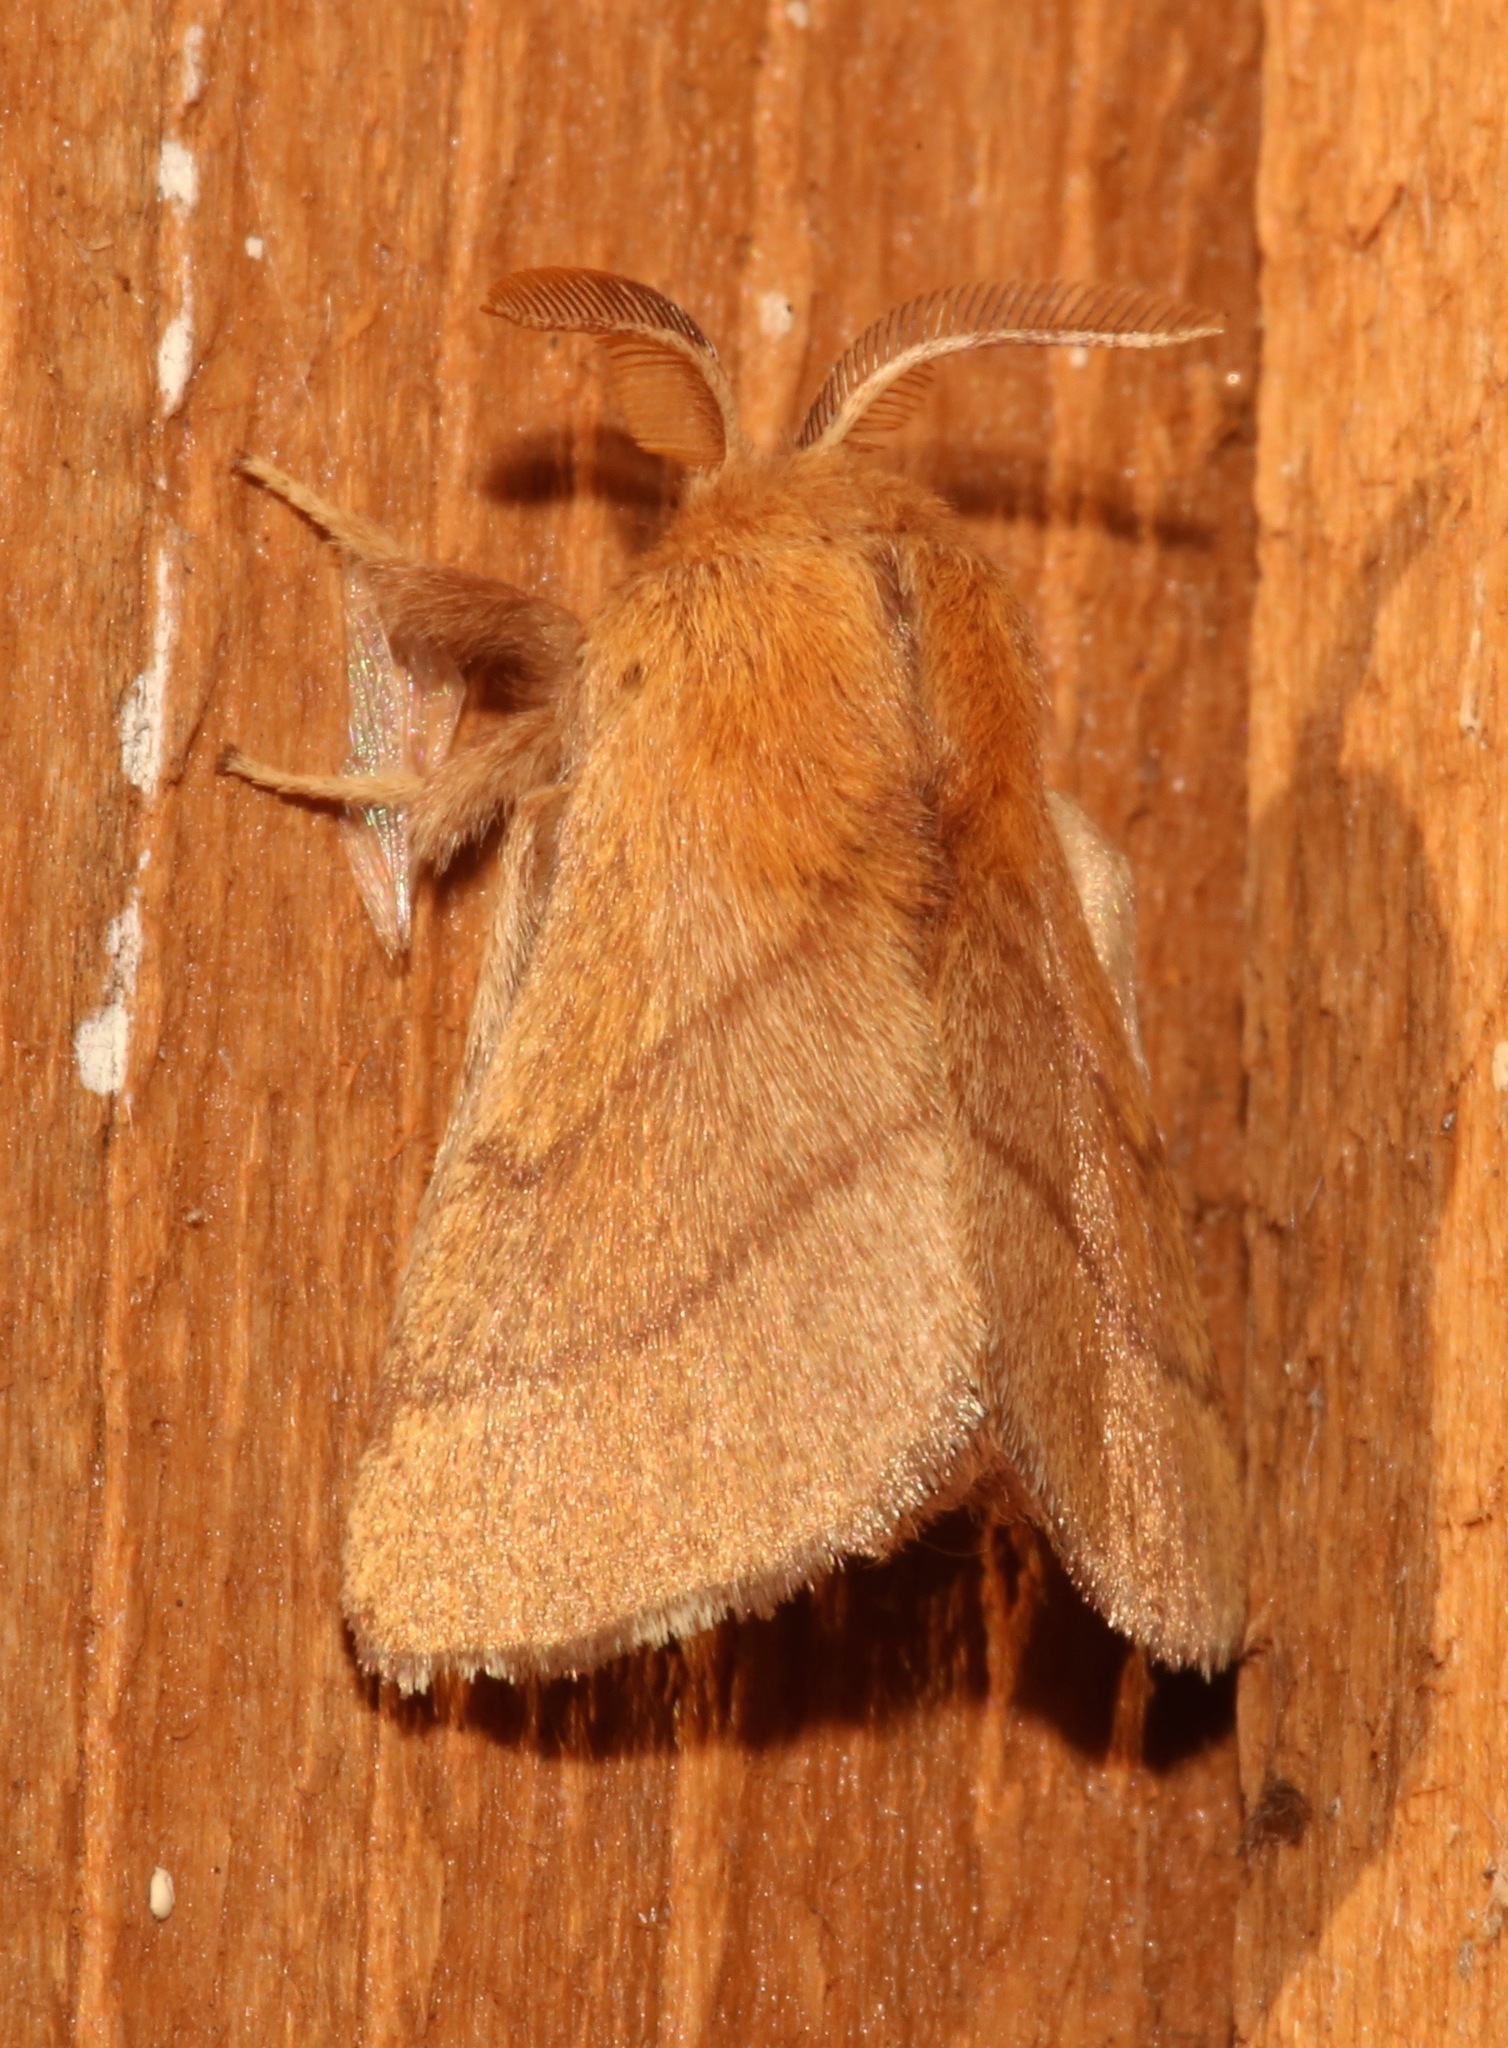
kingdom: Animalia
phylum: Arthropoda
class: Insecta
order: Lepidoptera
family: Lasiocampidae
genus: Malacosoma
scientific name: Malacosoma disstria
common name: Forest tent caterpillar
